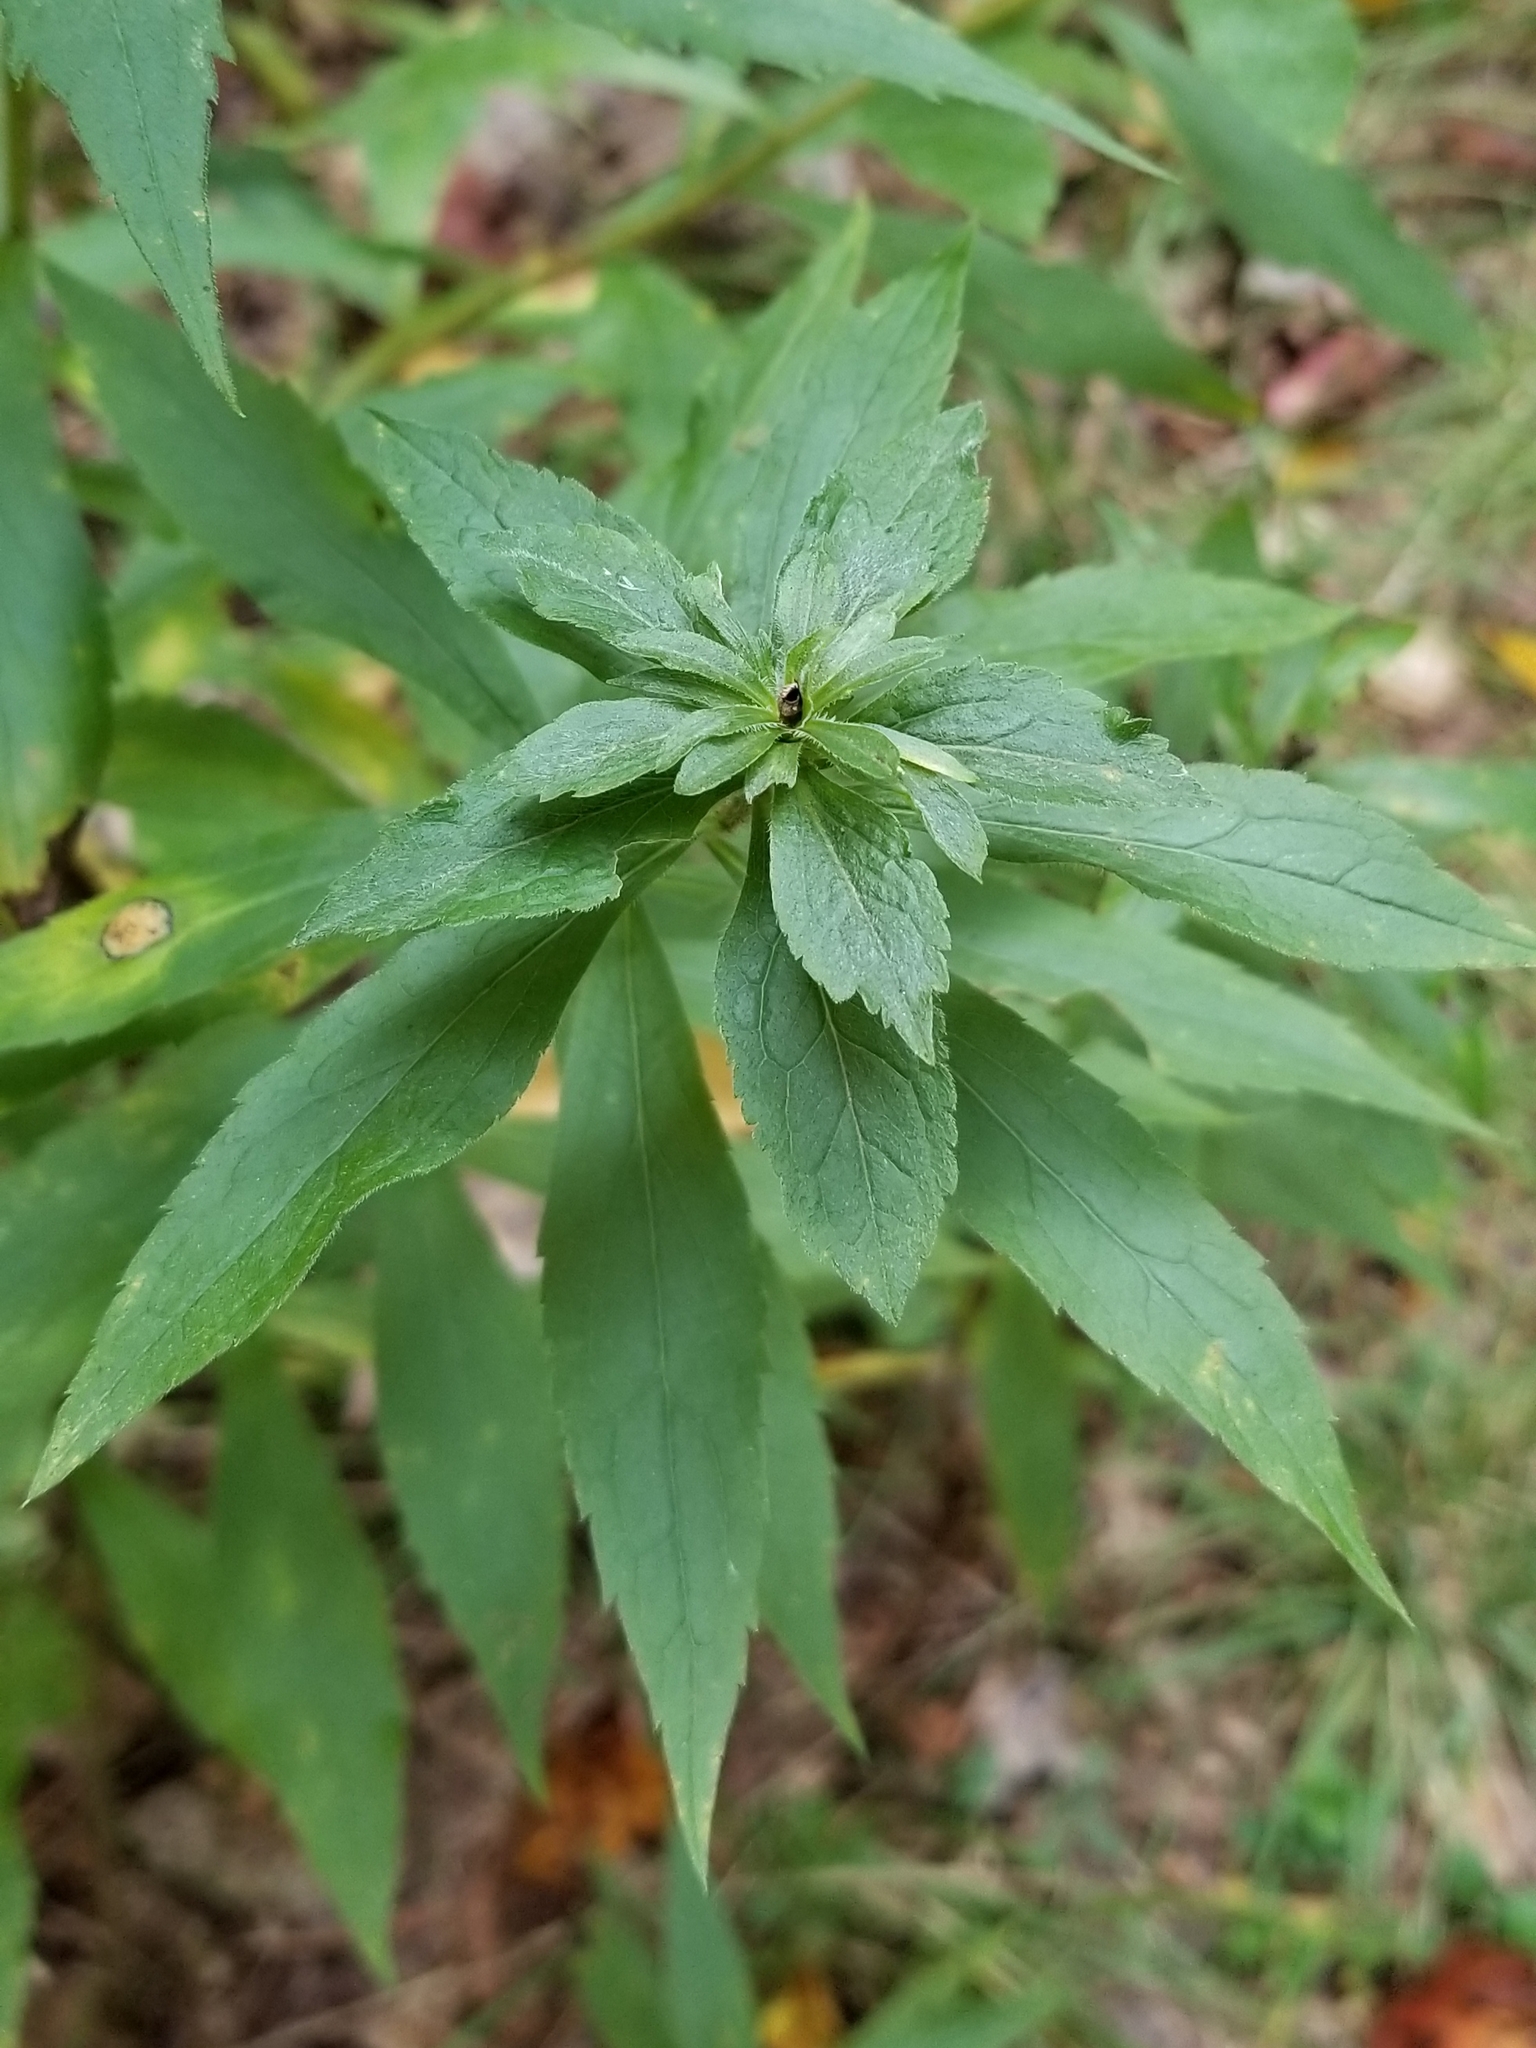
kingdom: Plantae
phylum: Tracheophyta
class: Magnoliopsida
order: Asterales
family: Asteraceae
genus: Solidago
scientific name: Solidago rugosa
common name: Rough-stemmed goldenrod
